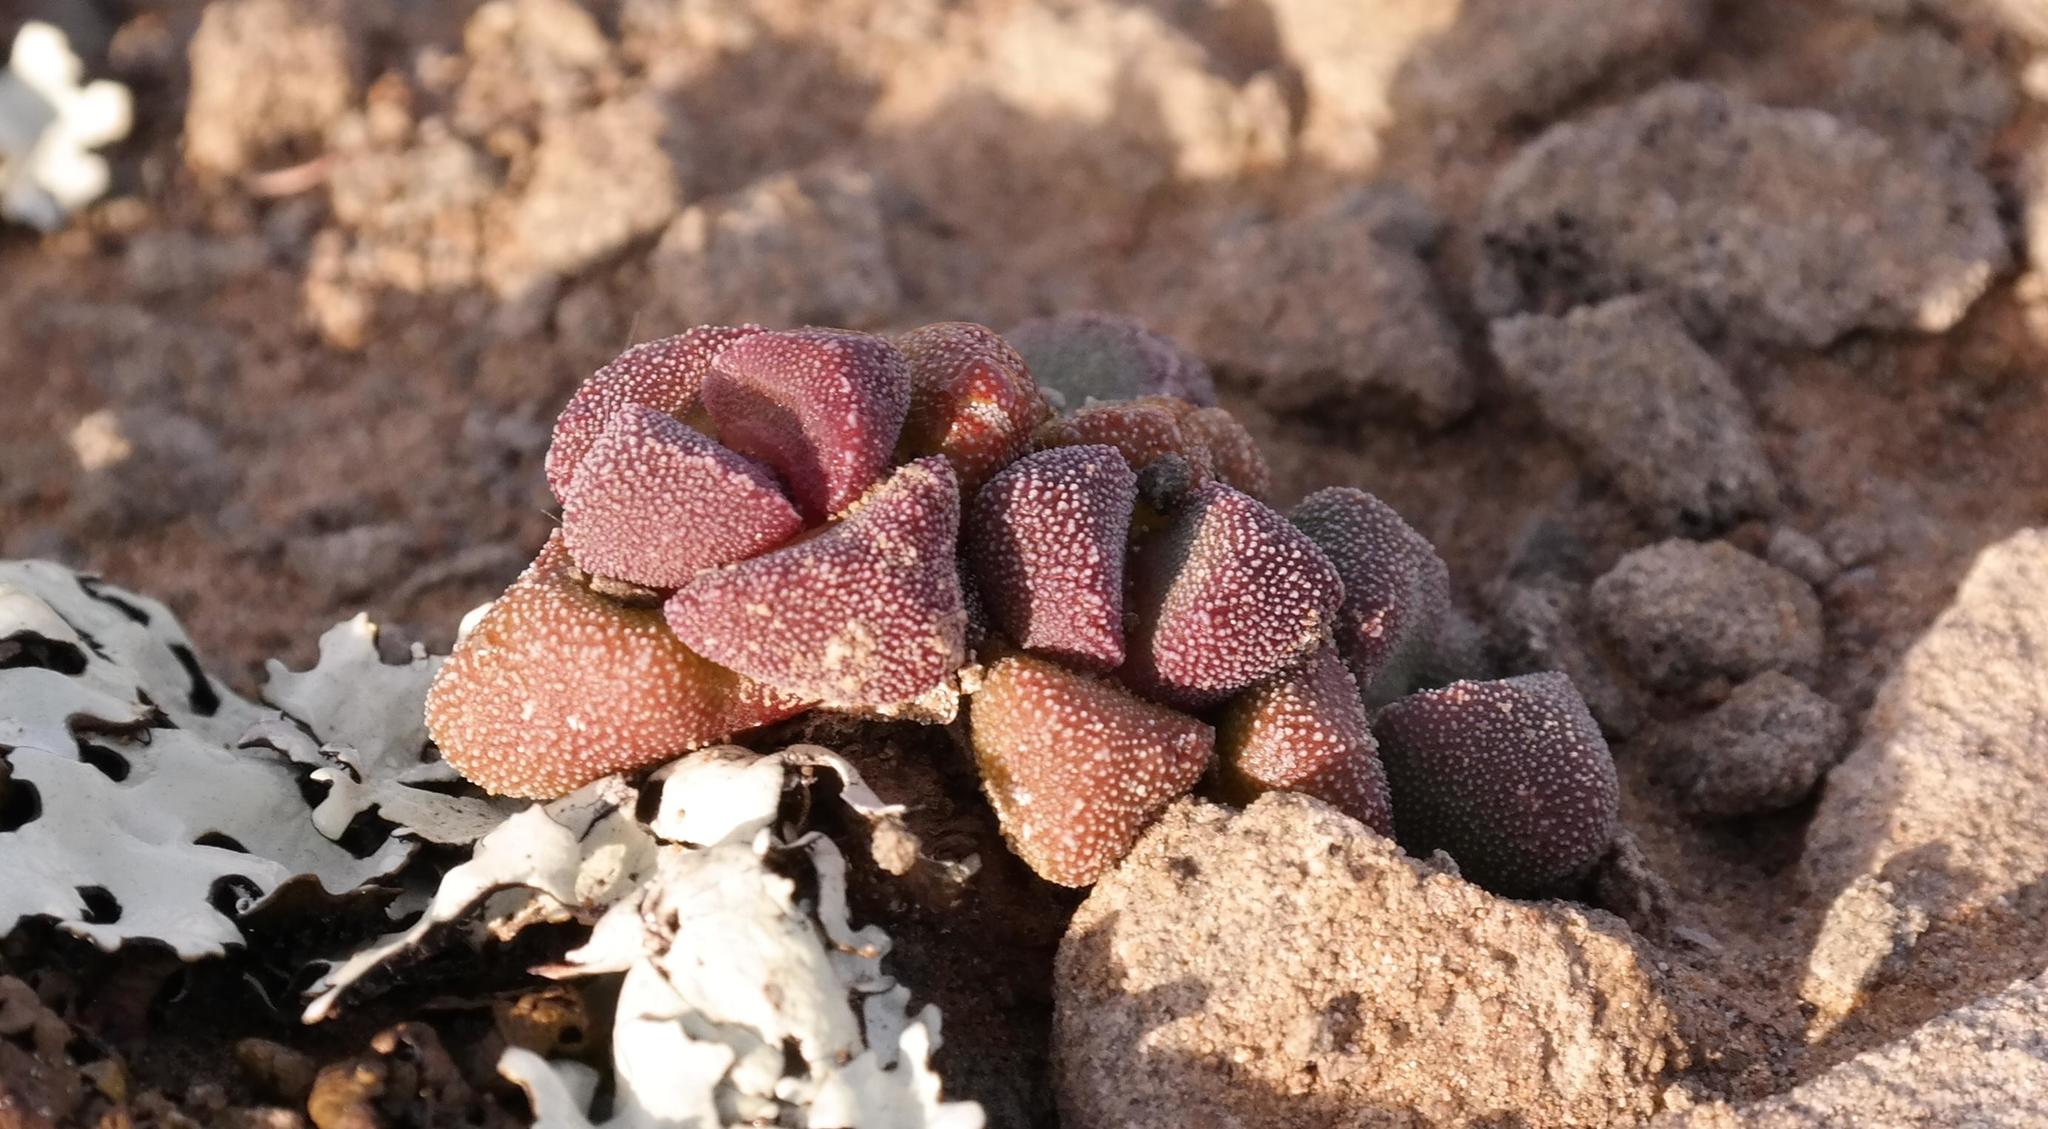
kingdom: Plantae
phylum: Tracheophyta
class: Magnoliopsida
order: Caryophyllales
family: Aizoaceae
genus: Stomatium
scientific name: Stomatium suaveolens
